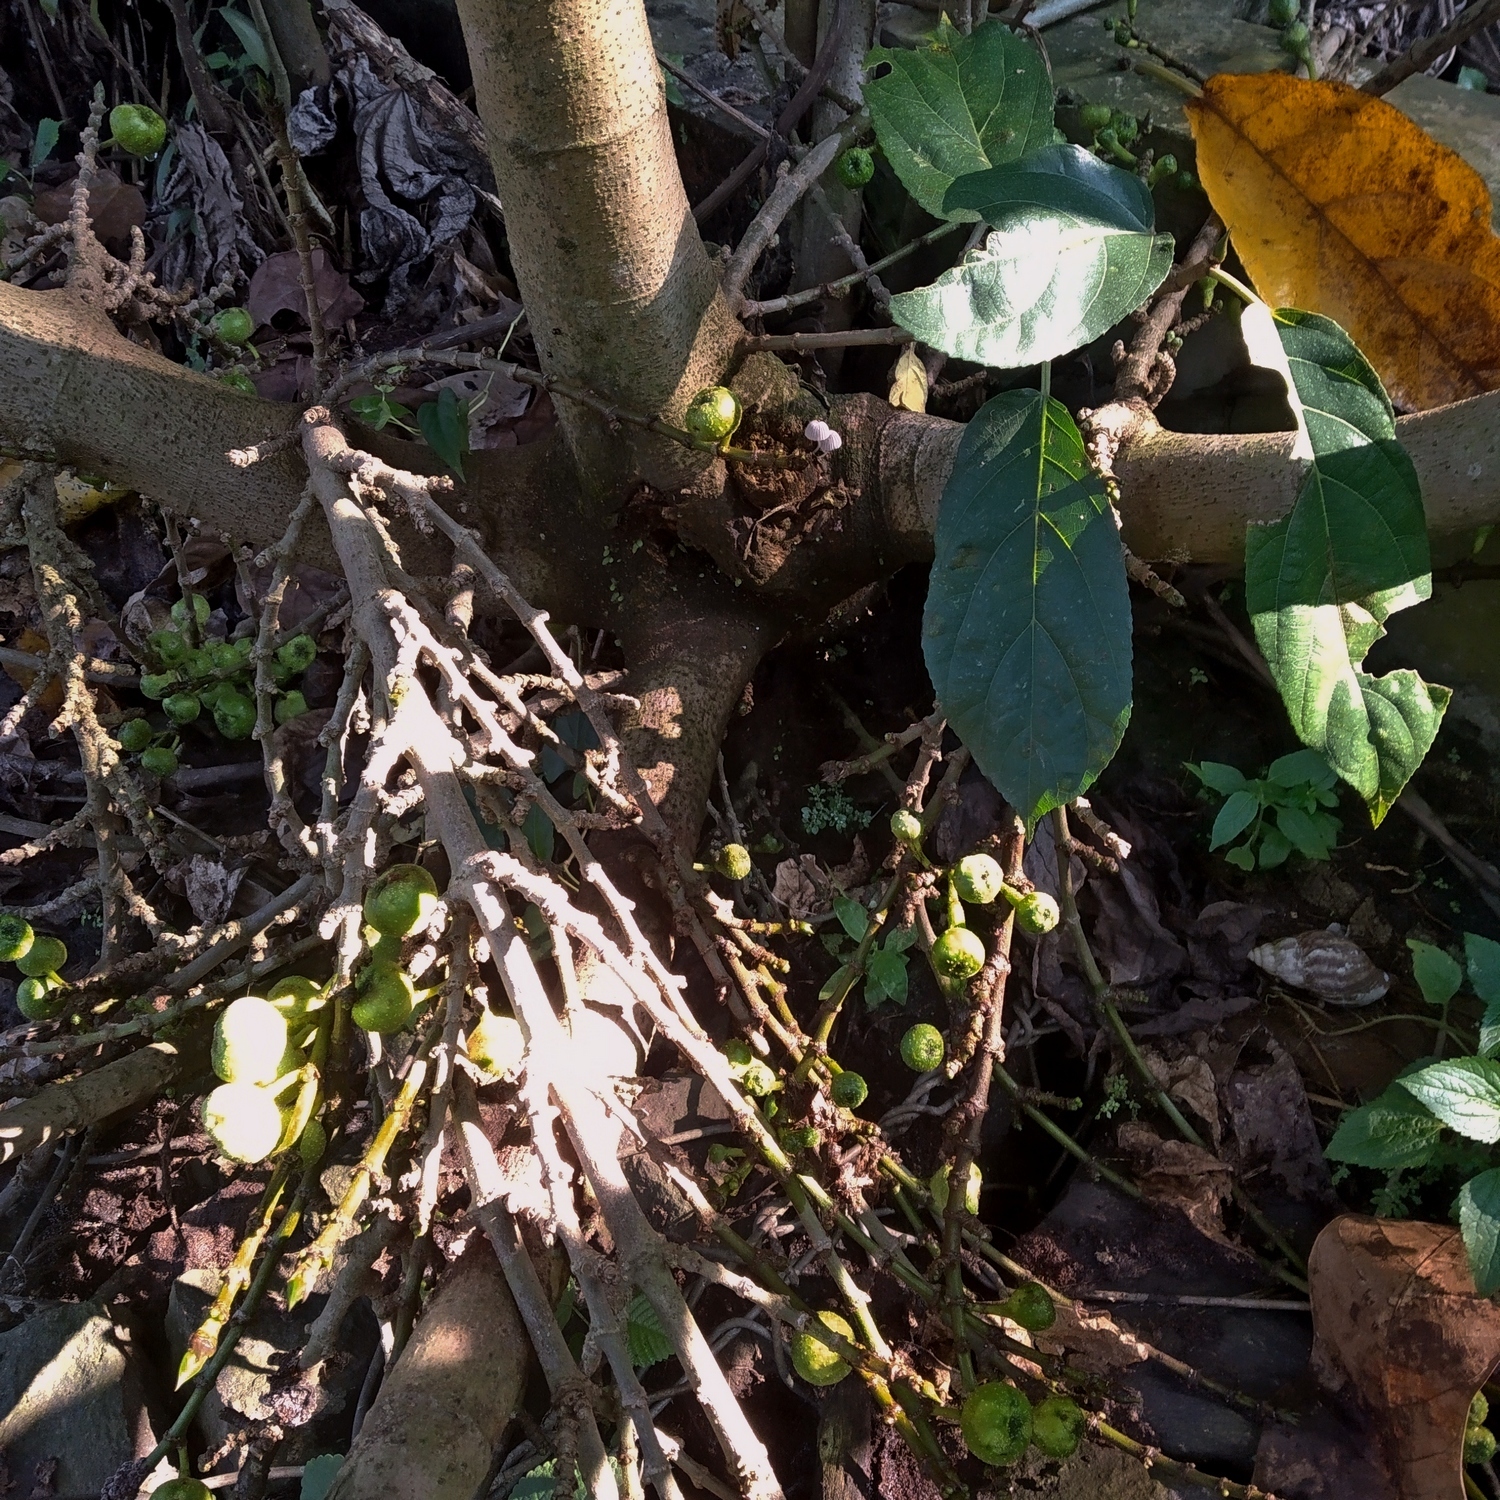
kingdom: Plantae
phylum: Tracheophyta
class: Magnoliopsida
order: Rosales
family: Moraceae
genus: Ficus
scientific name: Ficus hispida
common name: Hairy fig
